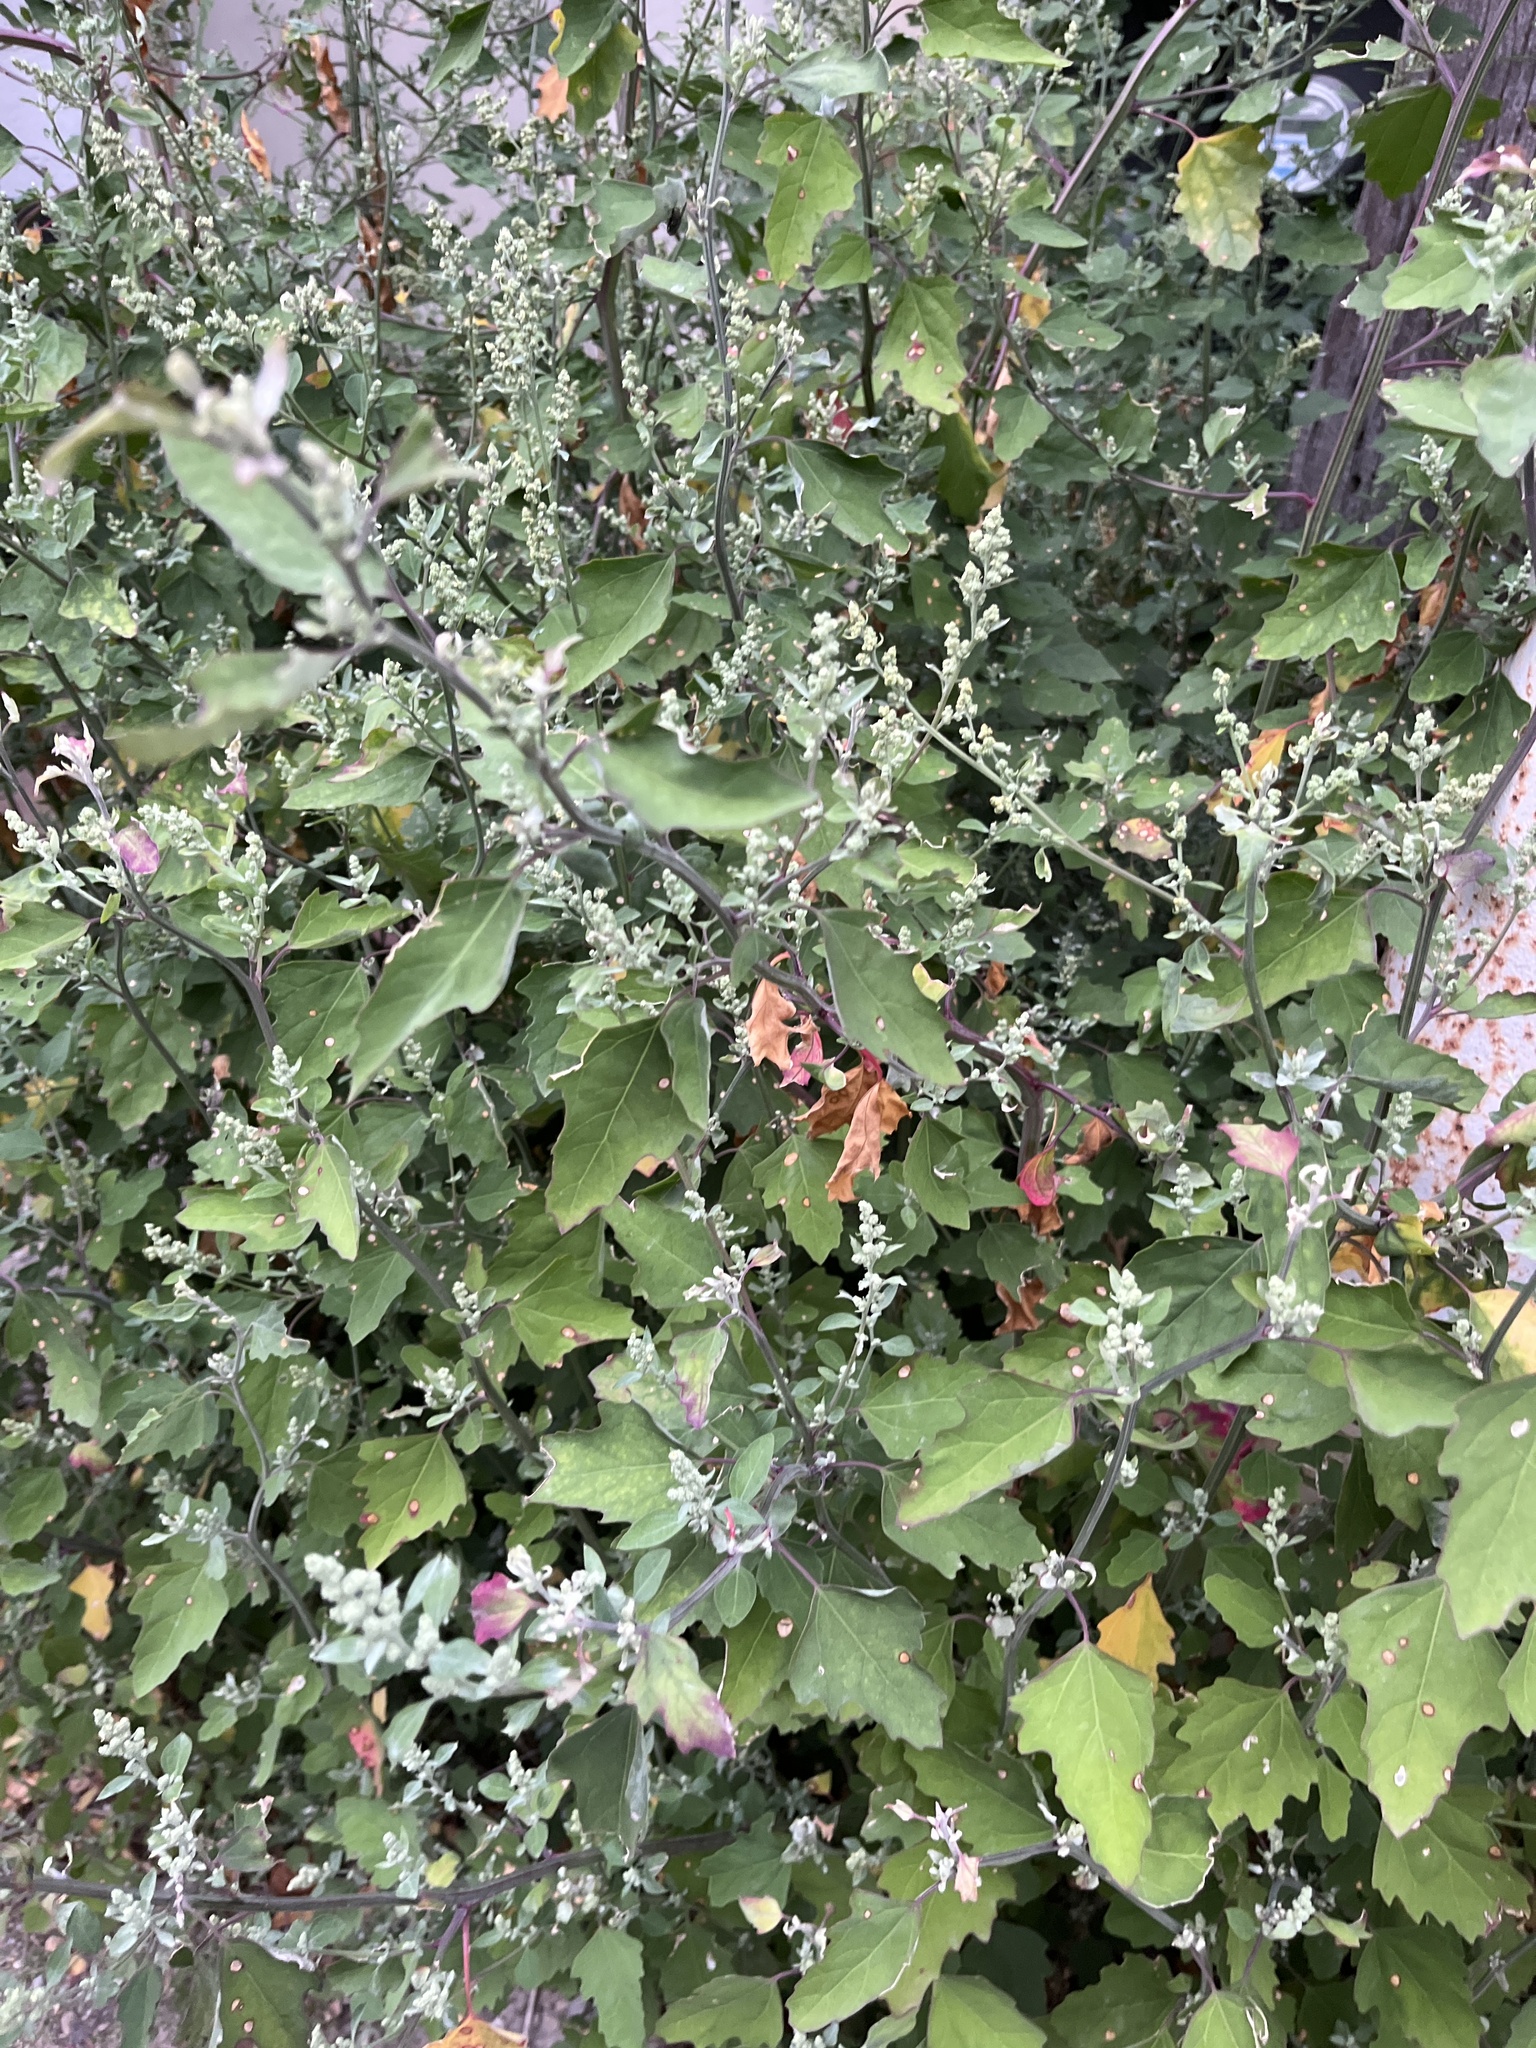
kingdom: Plantae
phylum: Tracheophyta
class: Magnoliopsida
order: Caryophyllales
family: Amaranthaceae
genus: Chenopodium
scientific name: Chenopodium album
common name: Fat-hen
